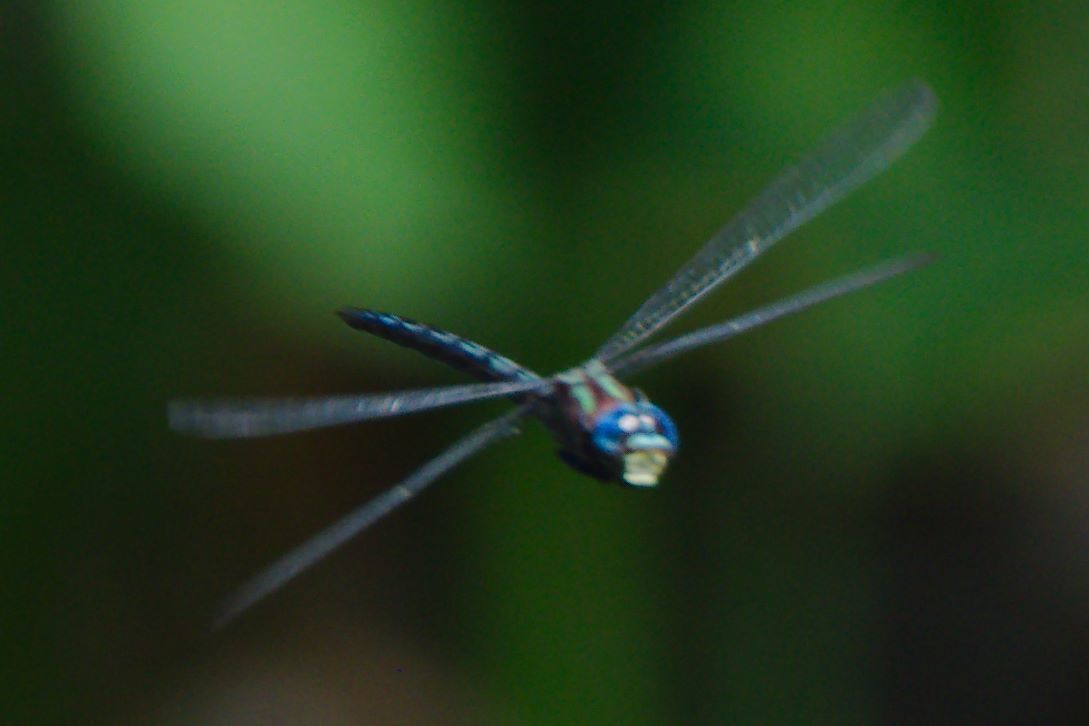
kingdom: Animalia
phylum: Arthropoda
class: Insecta
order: Odonata
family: Aeshnidae
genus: Nasiaeschna
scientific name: Nasiaeschna pentacantha
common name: Cyrano darner
